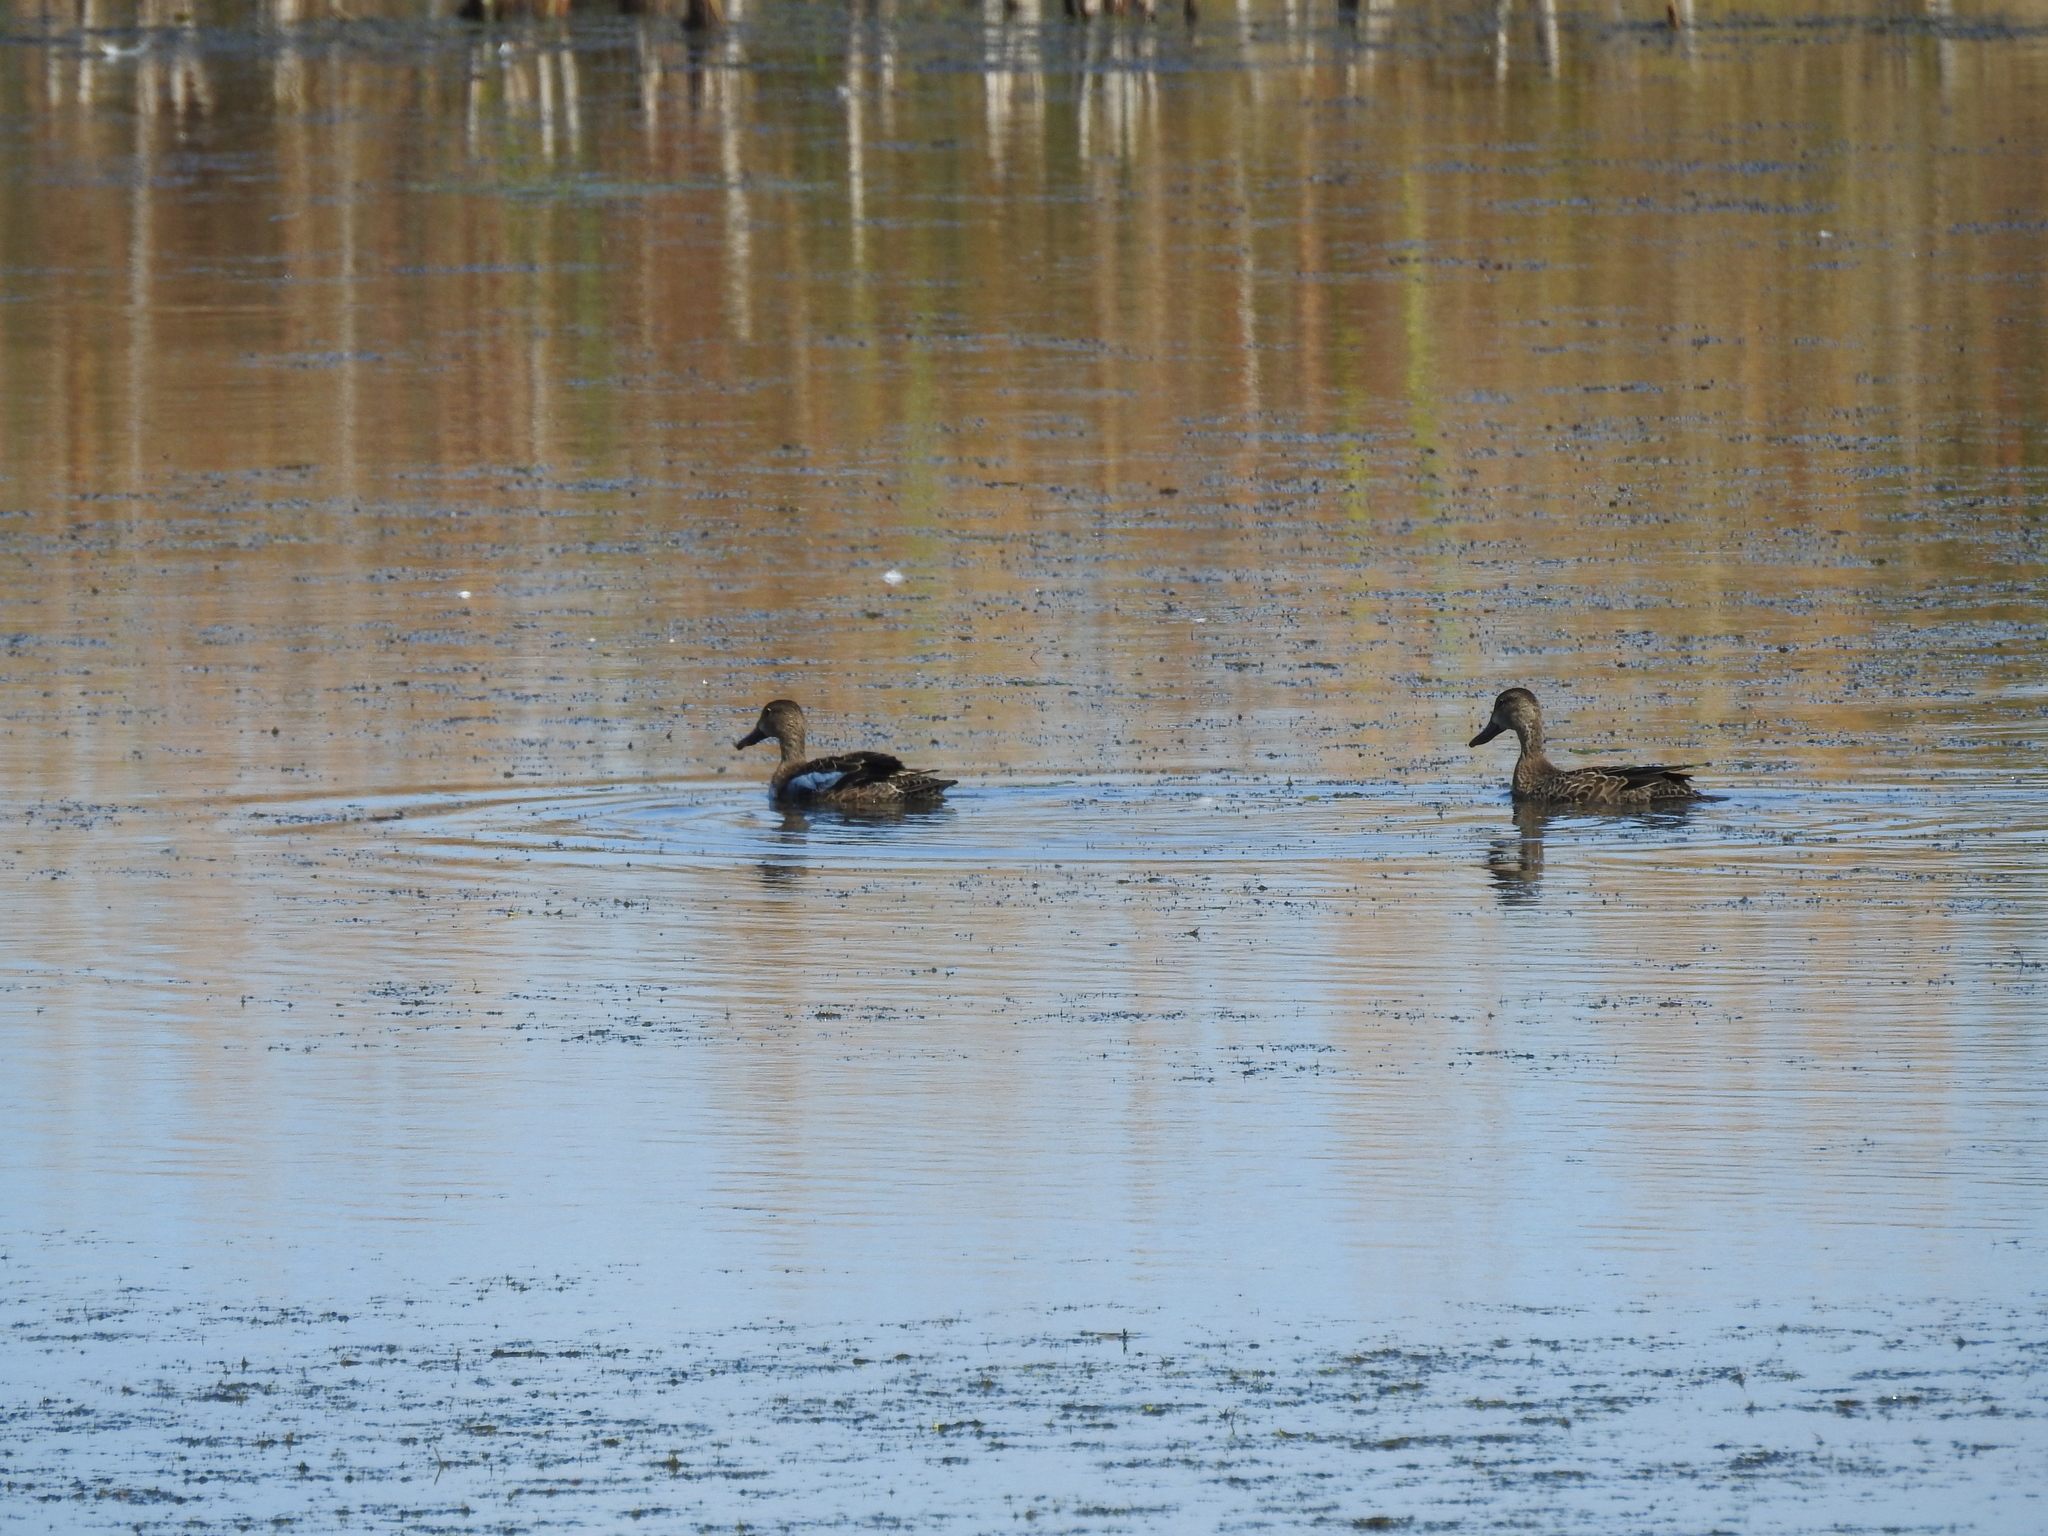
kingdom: Animalia
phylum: Chordata
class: Aves
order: Anseriformes
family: Anatidae
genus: Spatula
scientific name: Spatula discors
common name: Blue-winged teal
